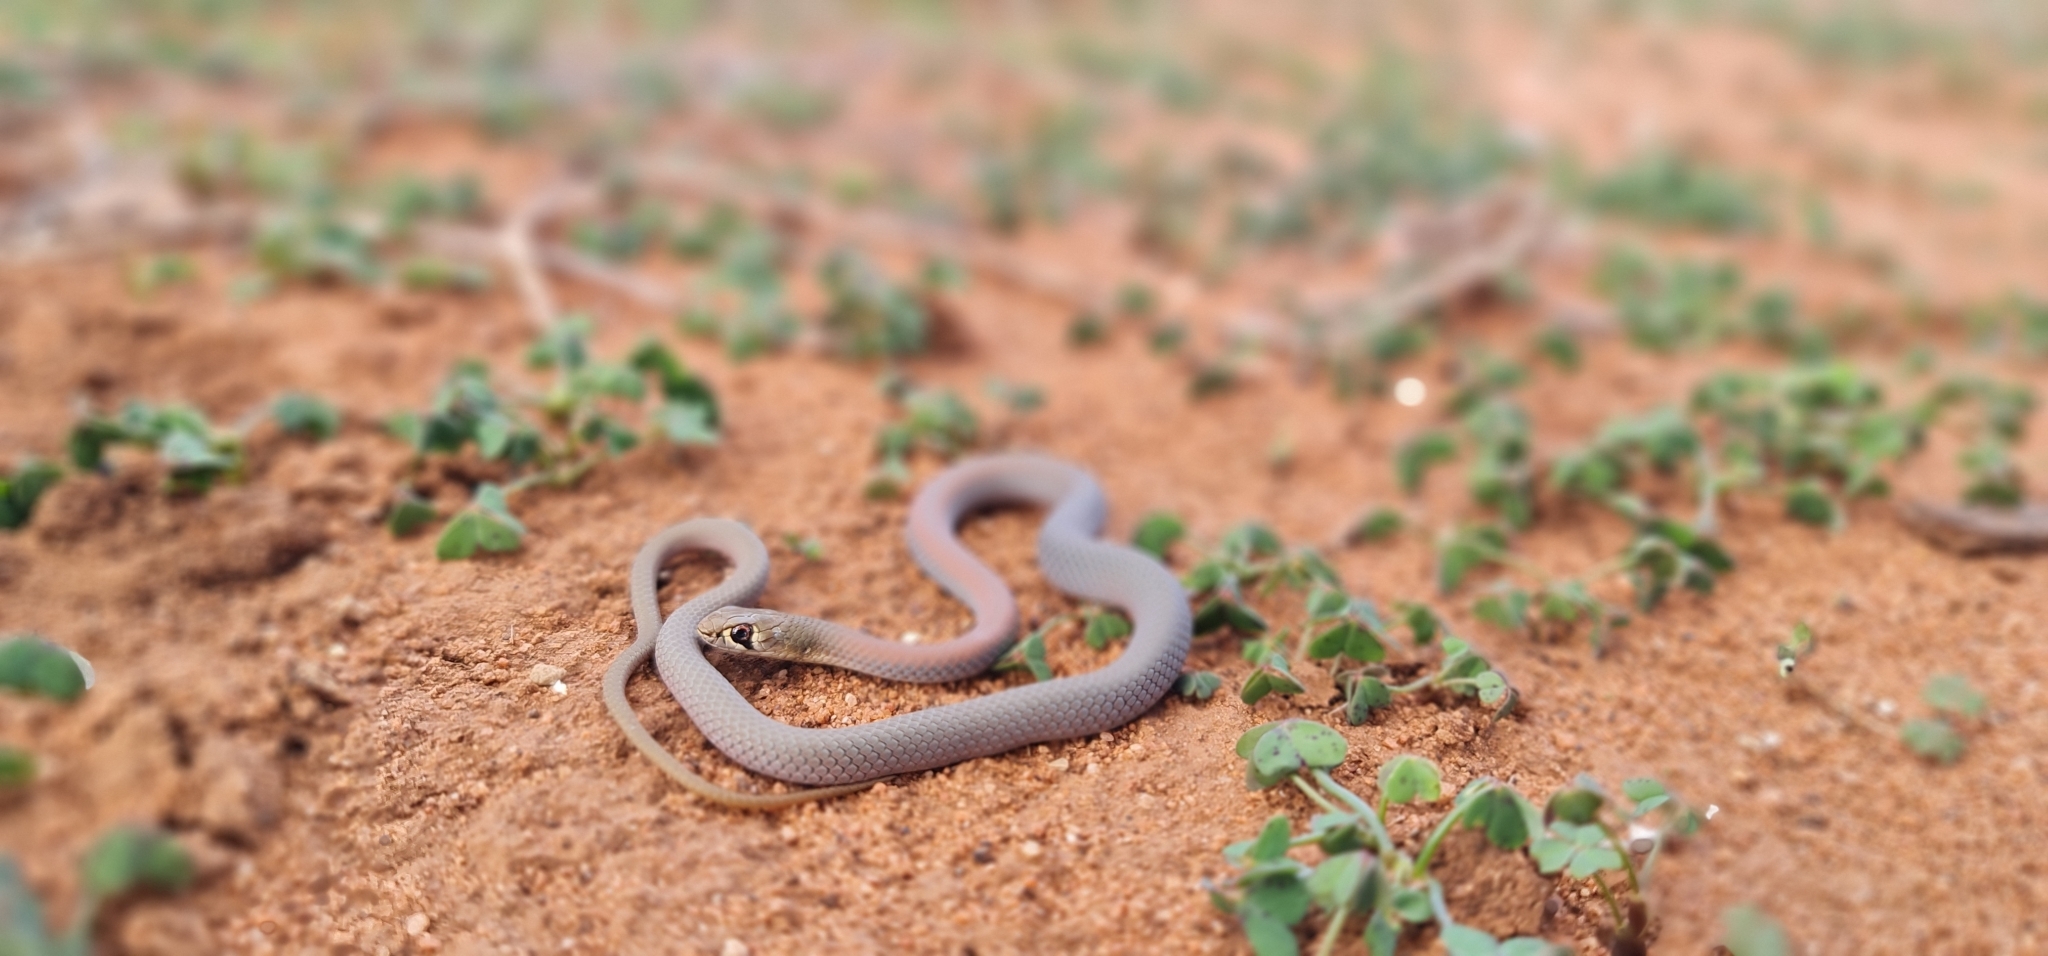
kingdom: Animalia
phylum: Chordata
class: Squamata
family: Elapidae
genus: Demansia
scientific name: Demansia psammophis
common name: Yellow-faced whip snake
